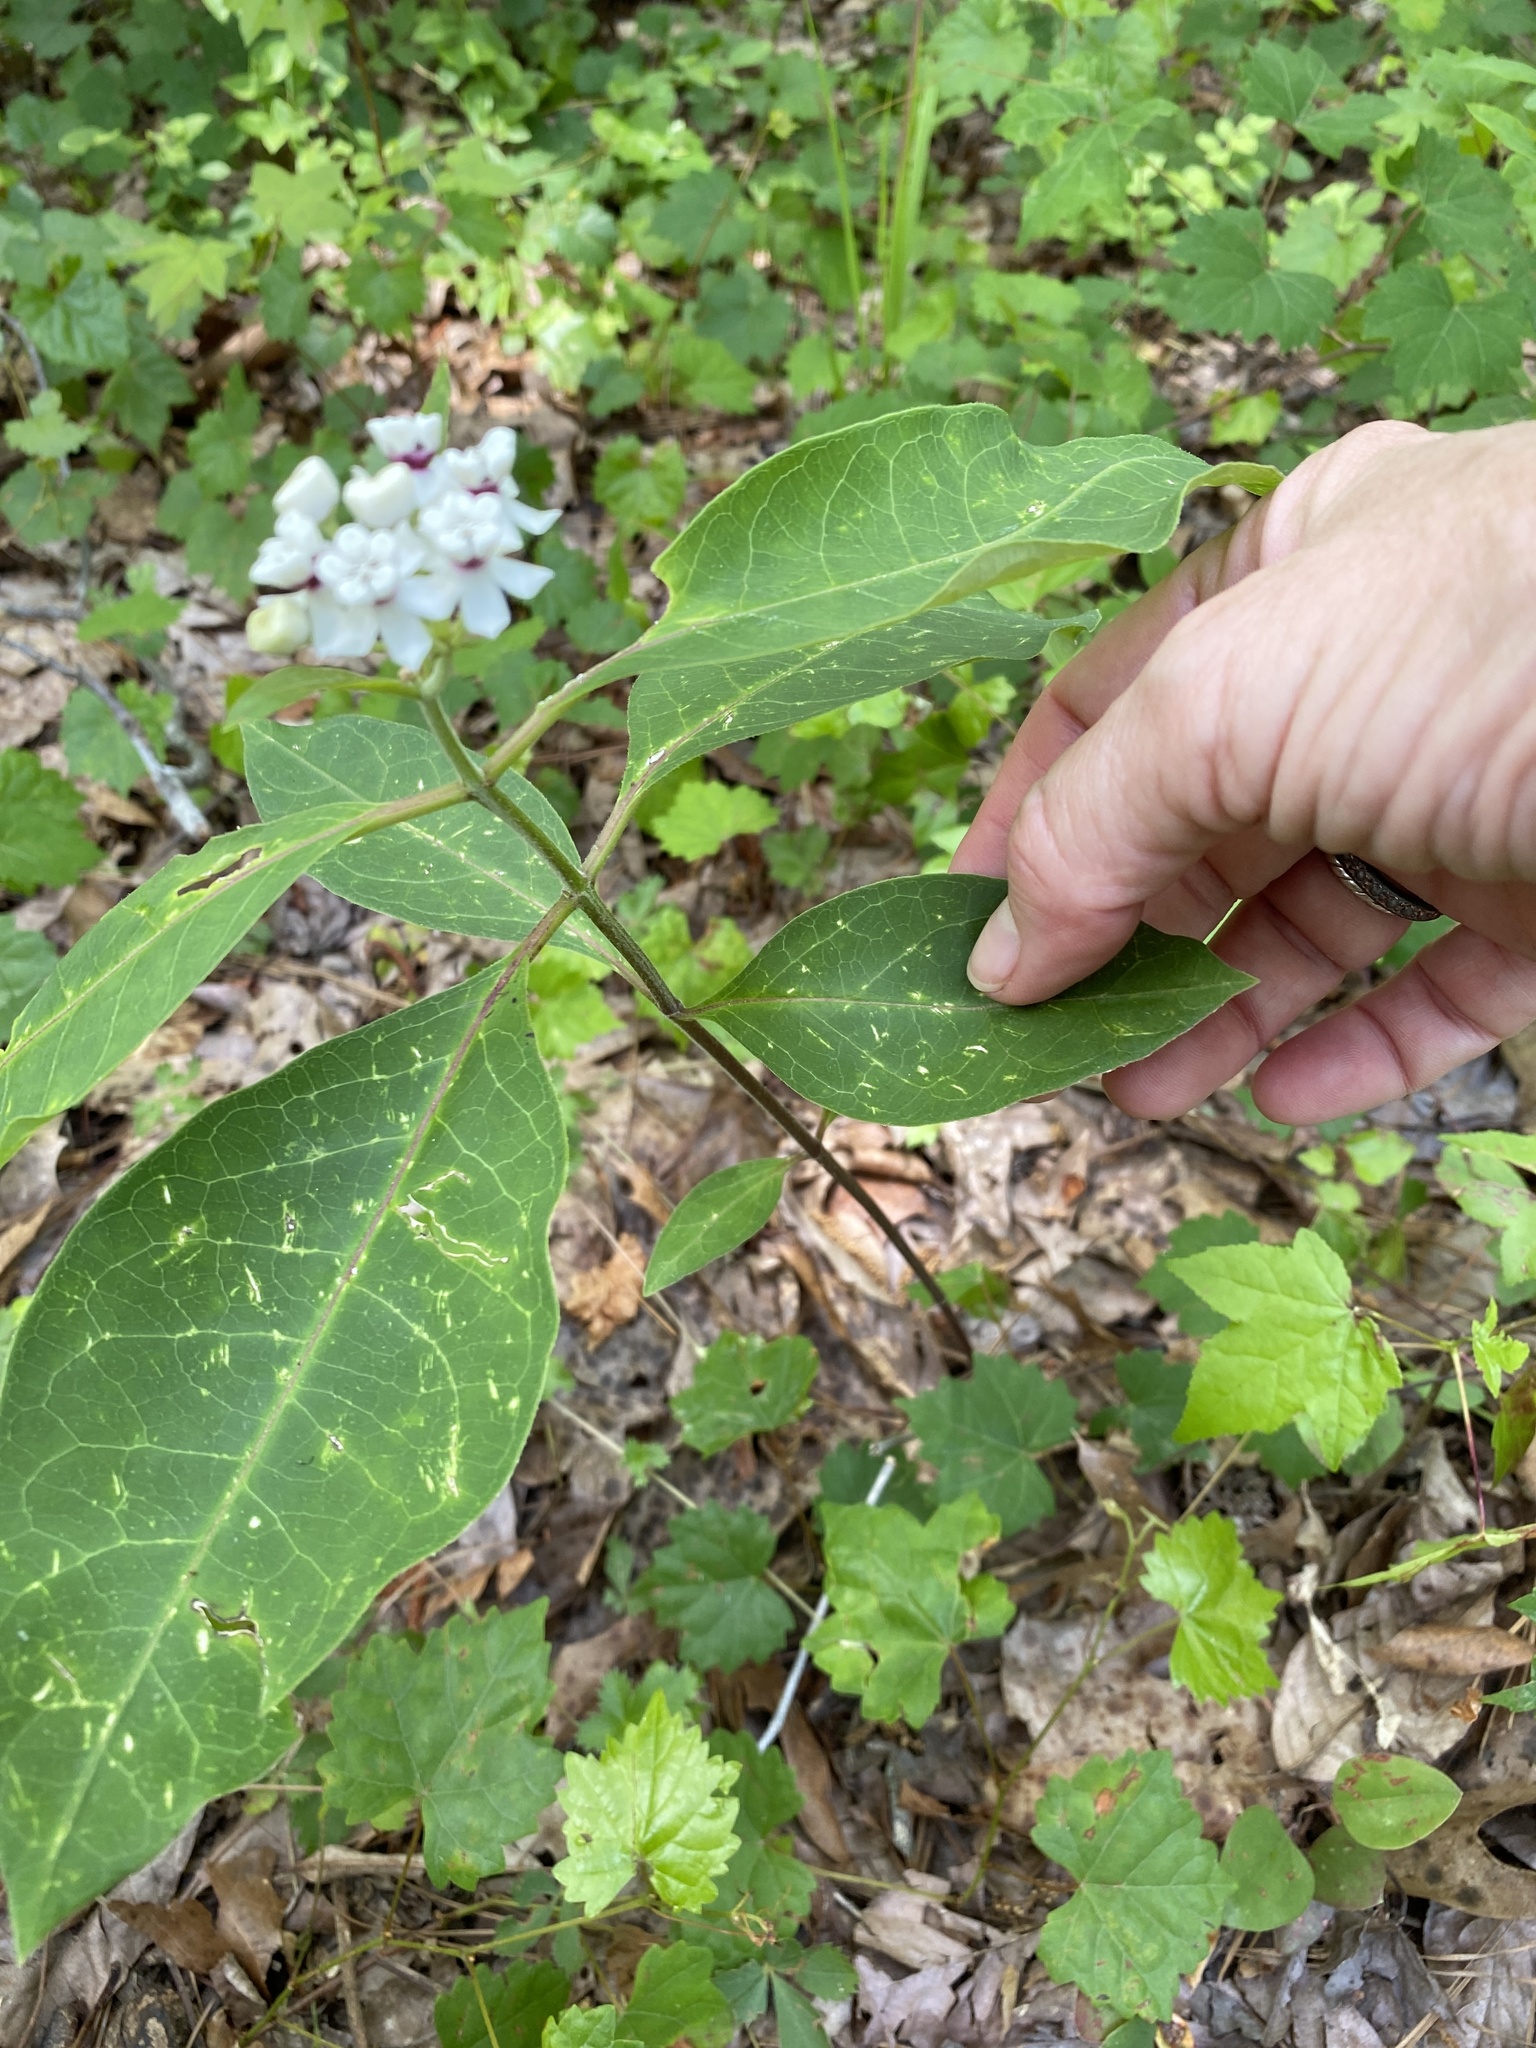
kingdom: Plantae
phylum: Tracheophyta
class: Magnoliopsida
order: Gentianales
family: Apocynaceae
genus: Asclepias
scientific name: Asclepias variegata
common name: Variegated milkweed
